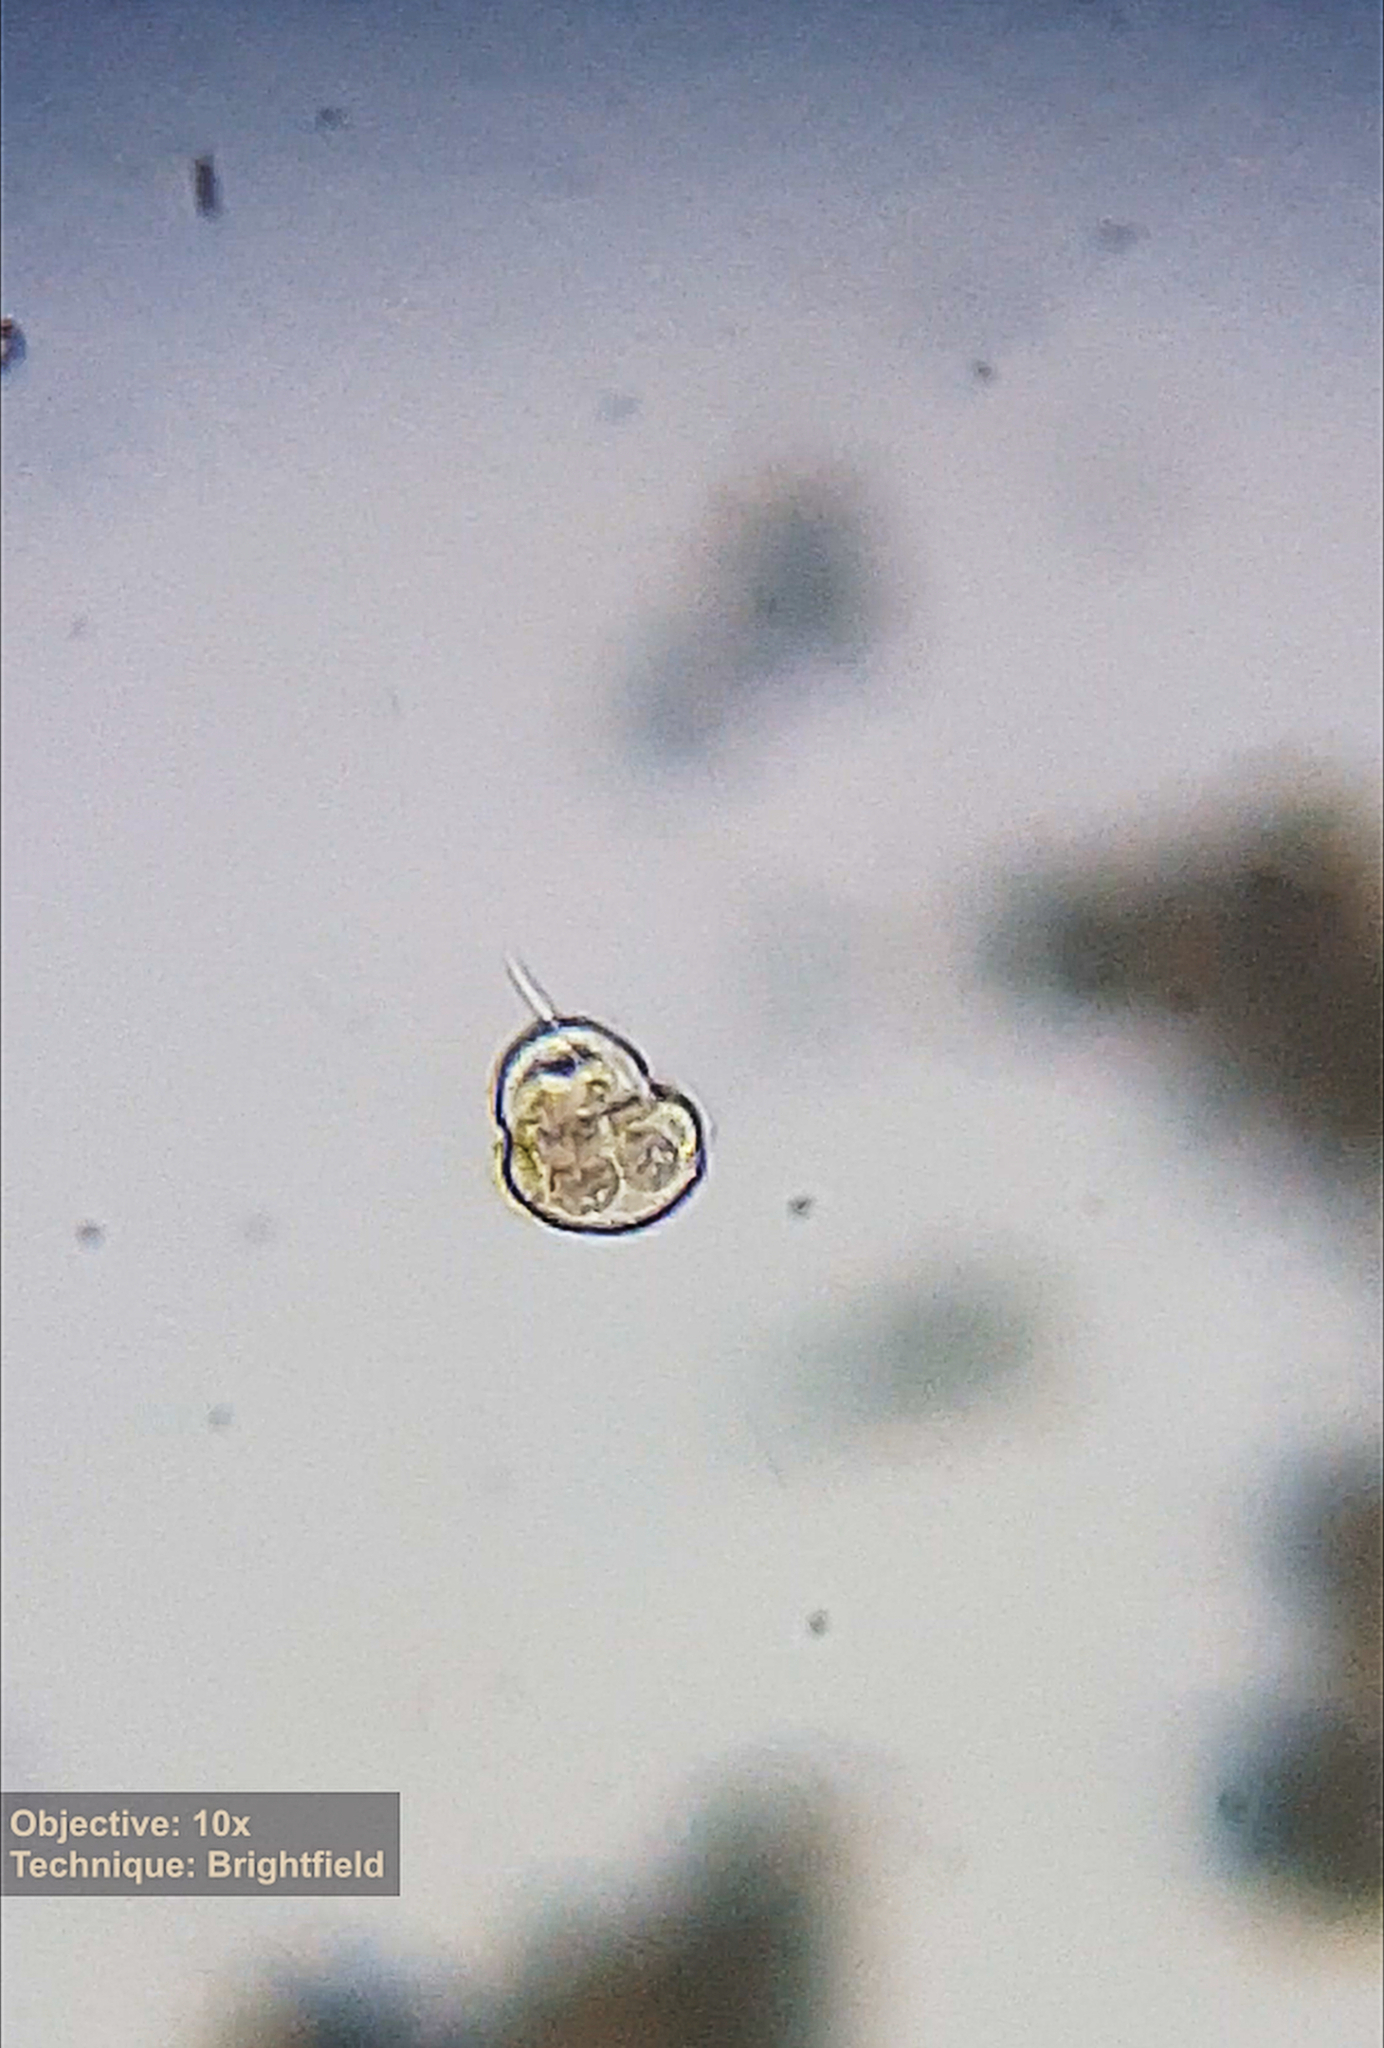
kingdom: Chromista
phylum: Ciliophora
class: Oligohymenophorea
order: Hymenostomatida
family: Urocentridae
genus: Urocentrum
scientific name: Urocentrum turbo
